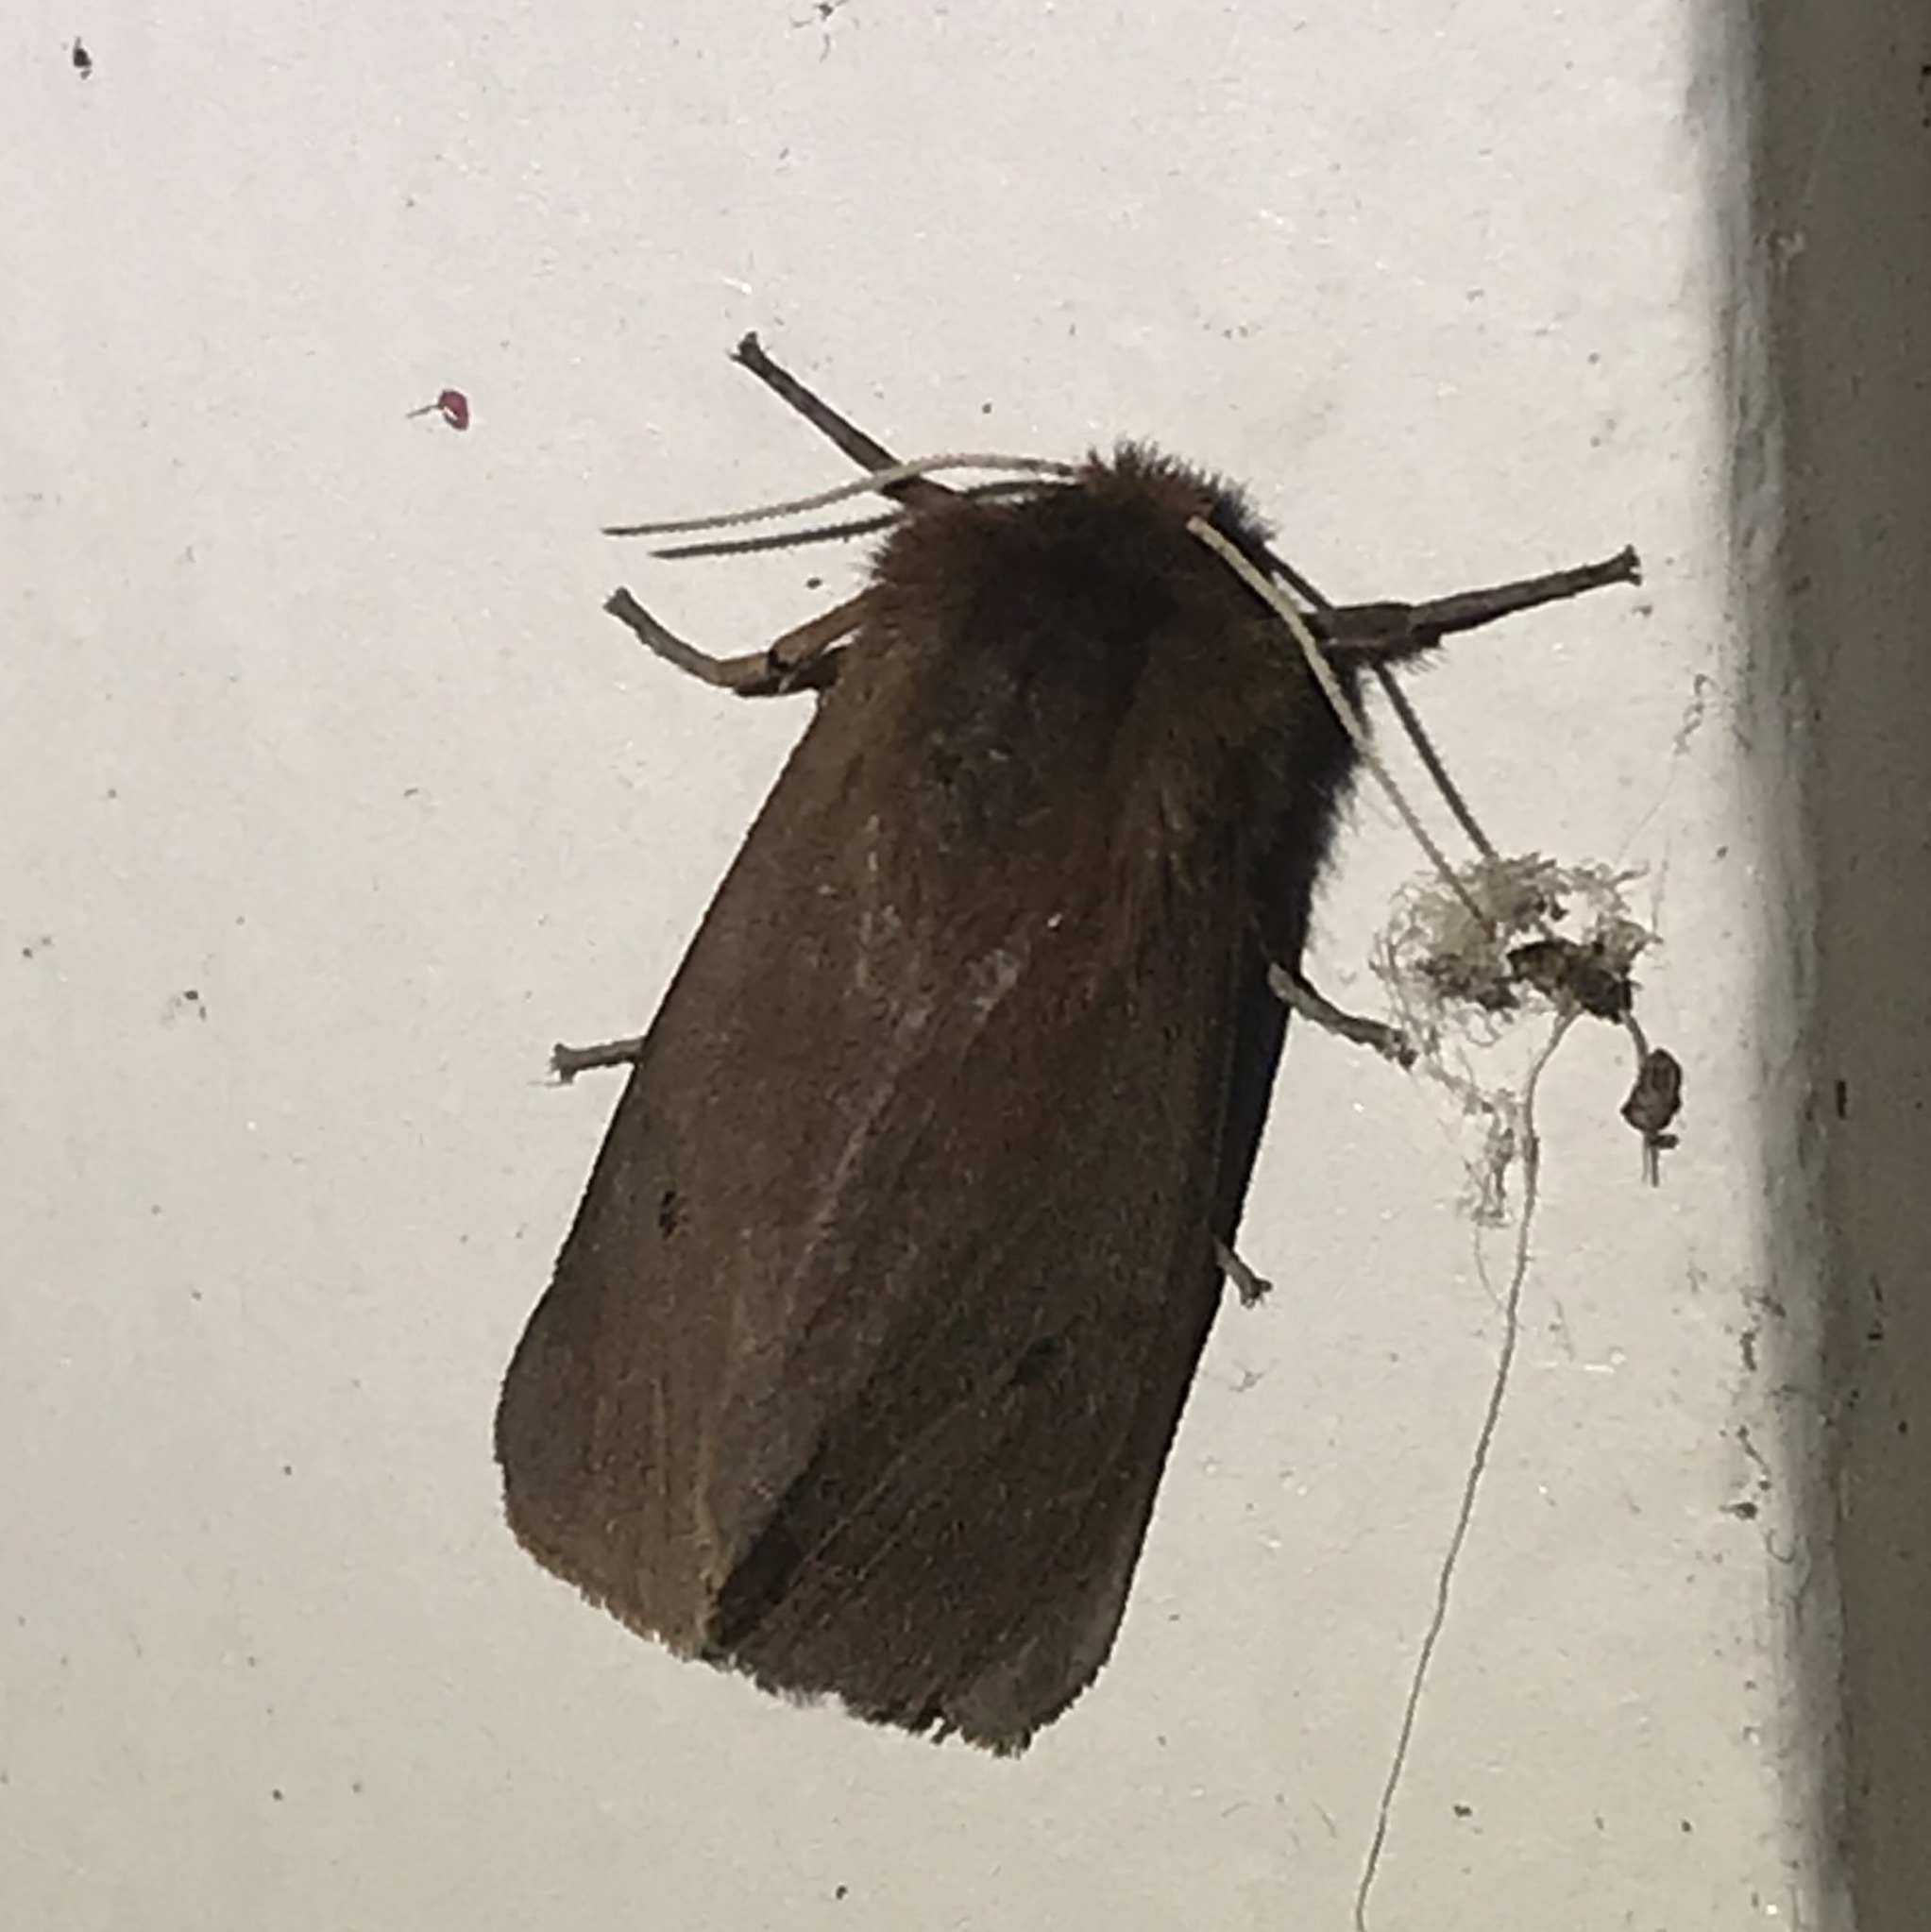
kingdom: Animalia
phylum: Arthropoda
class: Insecta
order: Lepidoptera
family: Erebidae
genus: Phragmatobia
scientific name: Phragmatobia fuliginosa
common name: Ruby tiger
